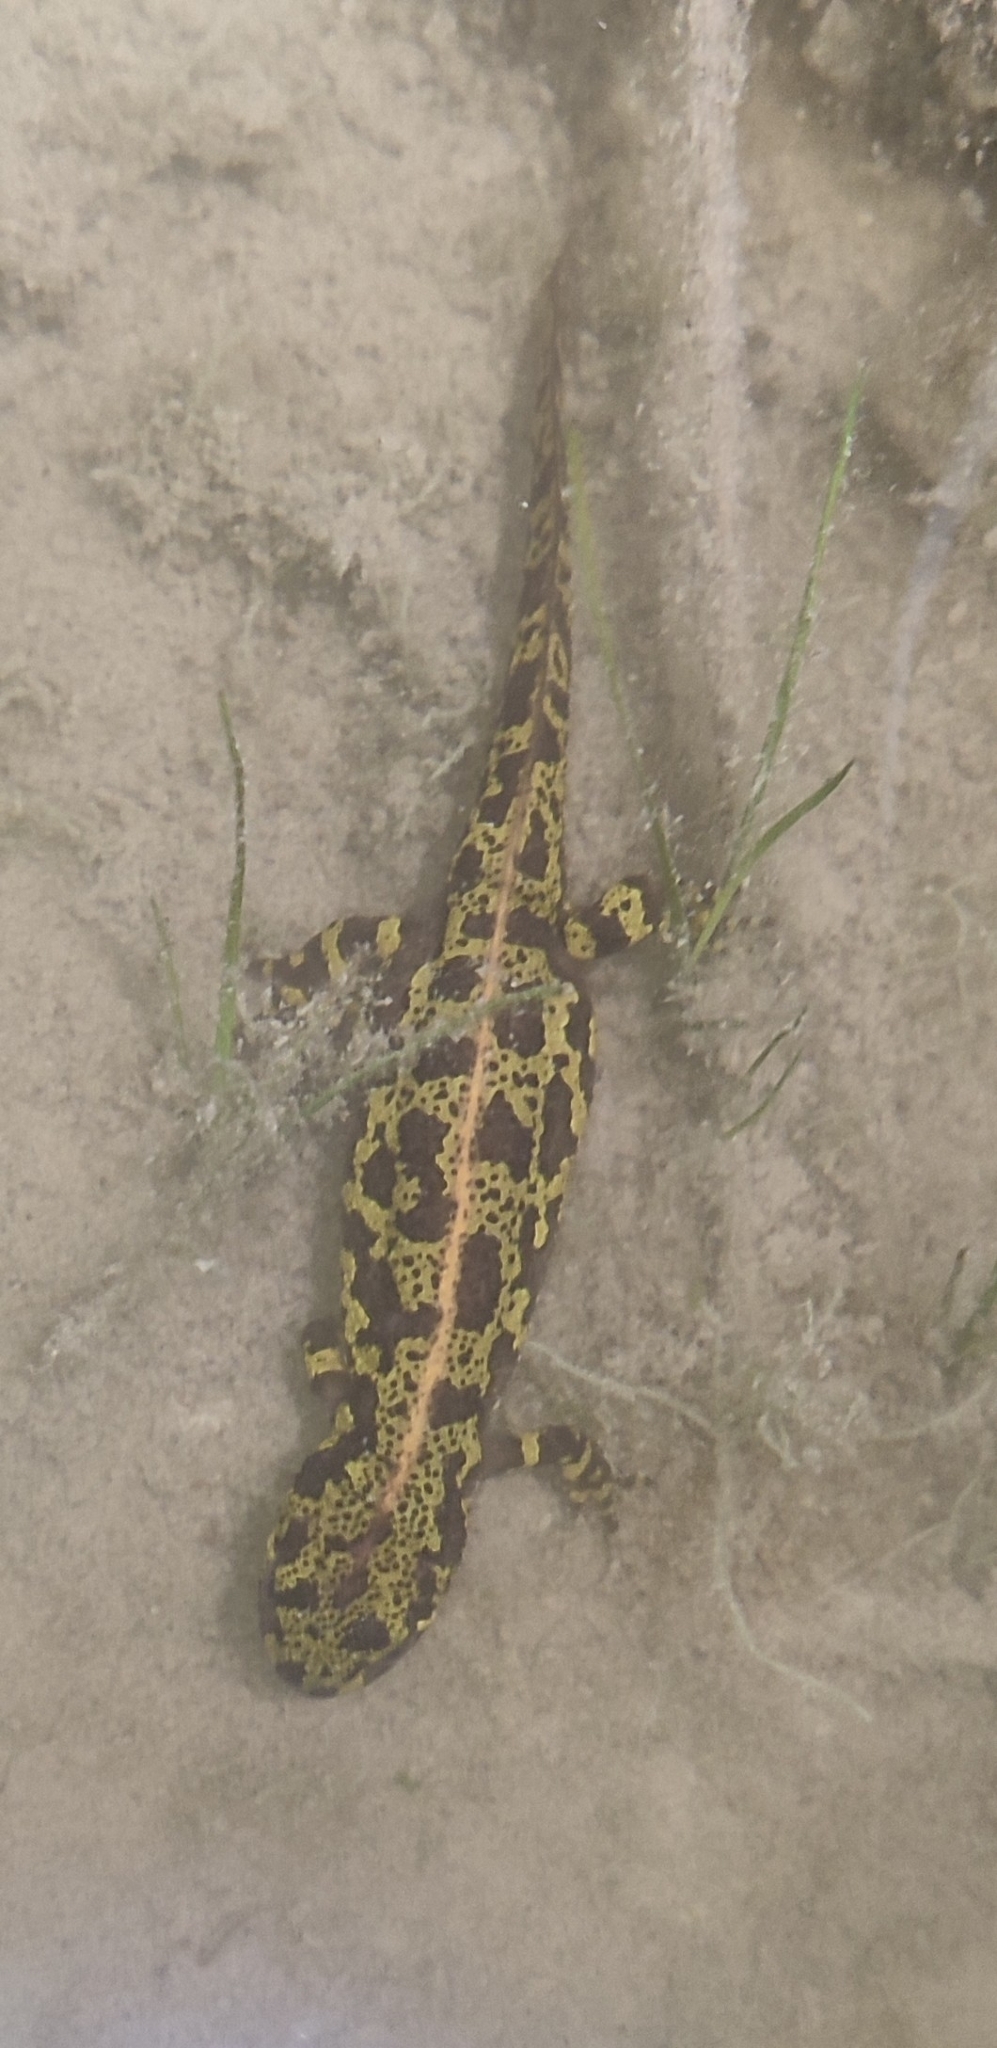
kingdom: Animalia
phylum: Chordata
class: Amphibia
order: Caudata
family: Salamandridae
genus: Triturus
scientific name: Triturus marmoratus
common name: Marbled newt
